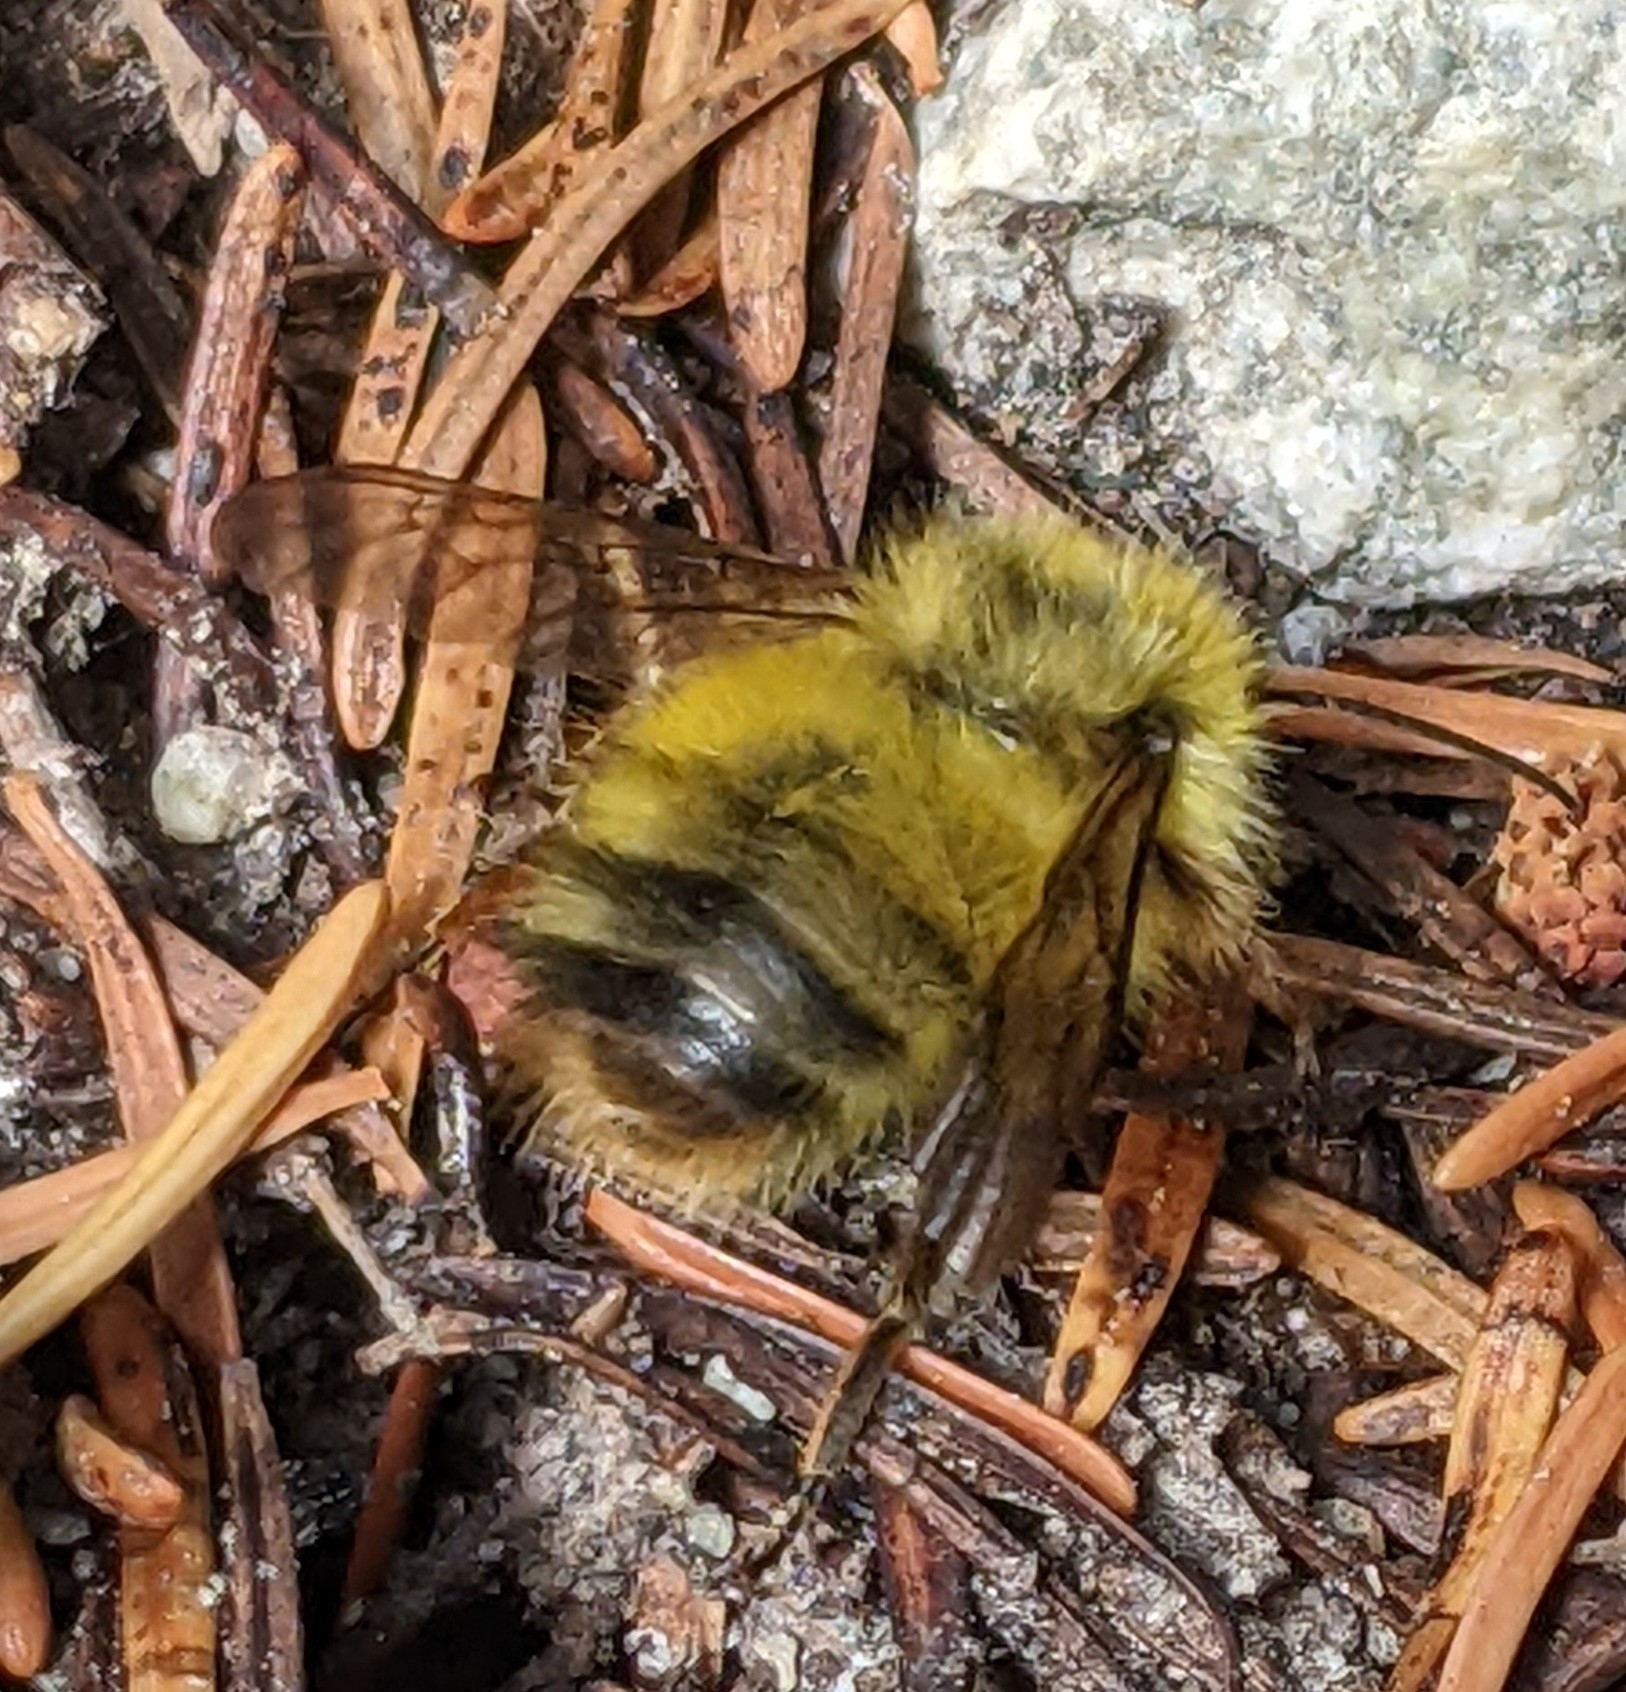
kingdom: Animalia
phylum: Arthropoda
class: Insecta
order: Hymenoptera
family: Apidae
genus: Bombus
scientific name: Bombus sitkensis
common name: Sitka bumble bee
